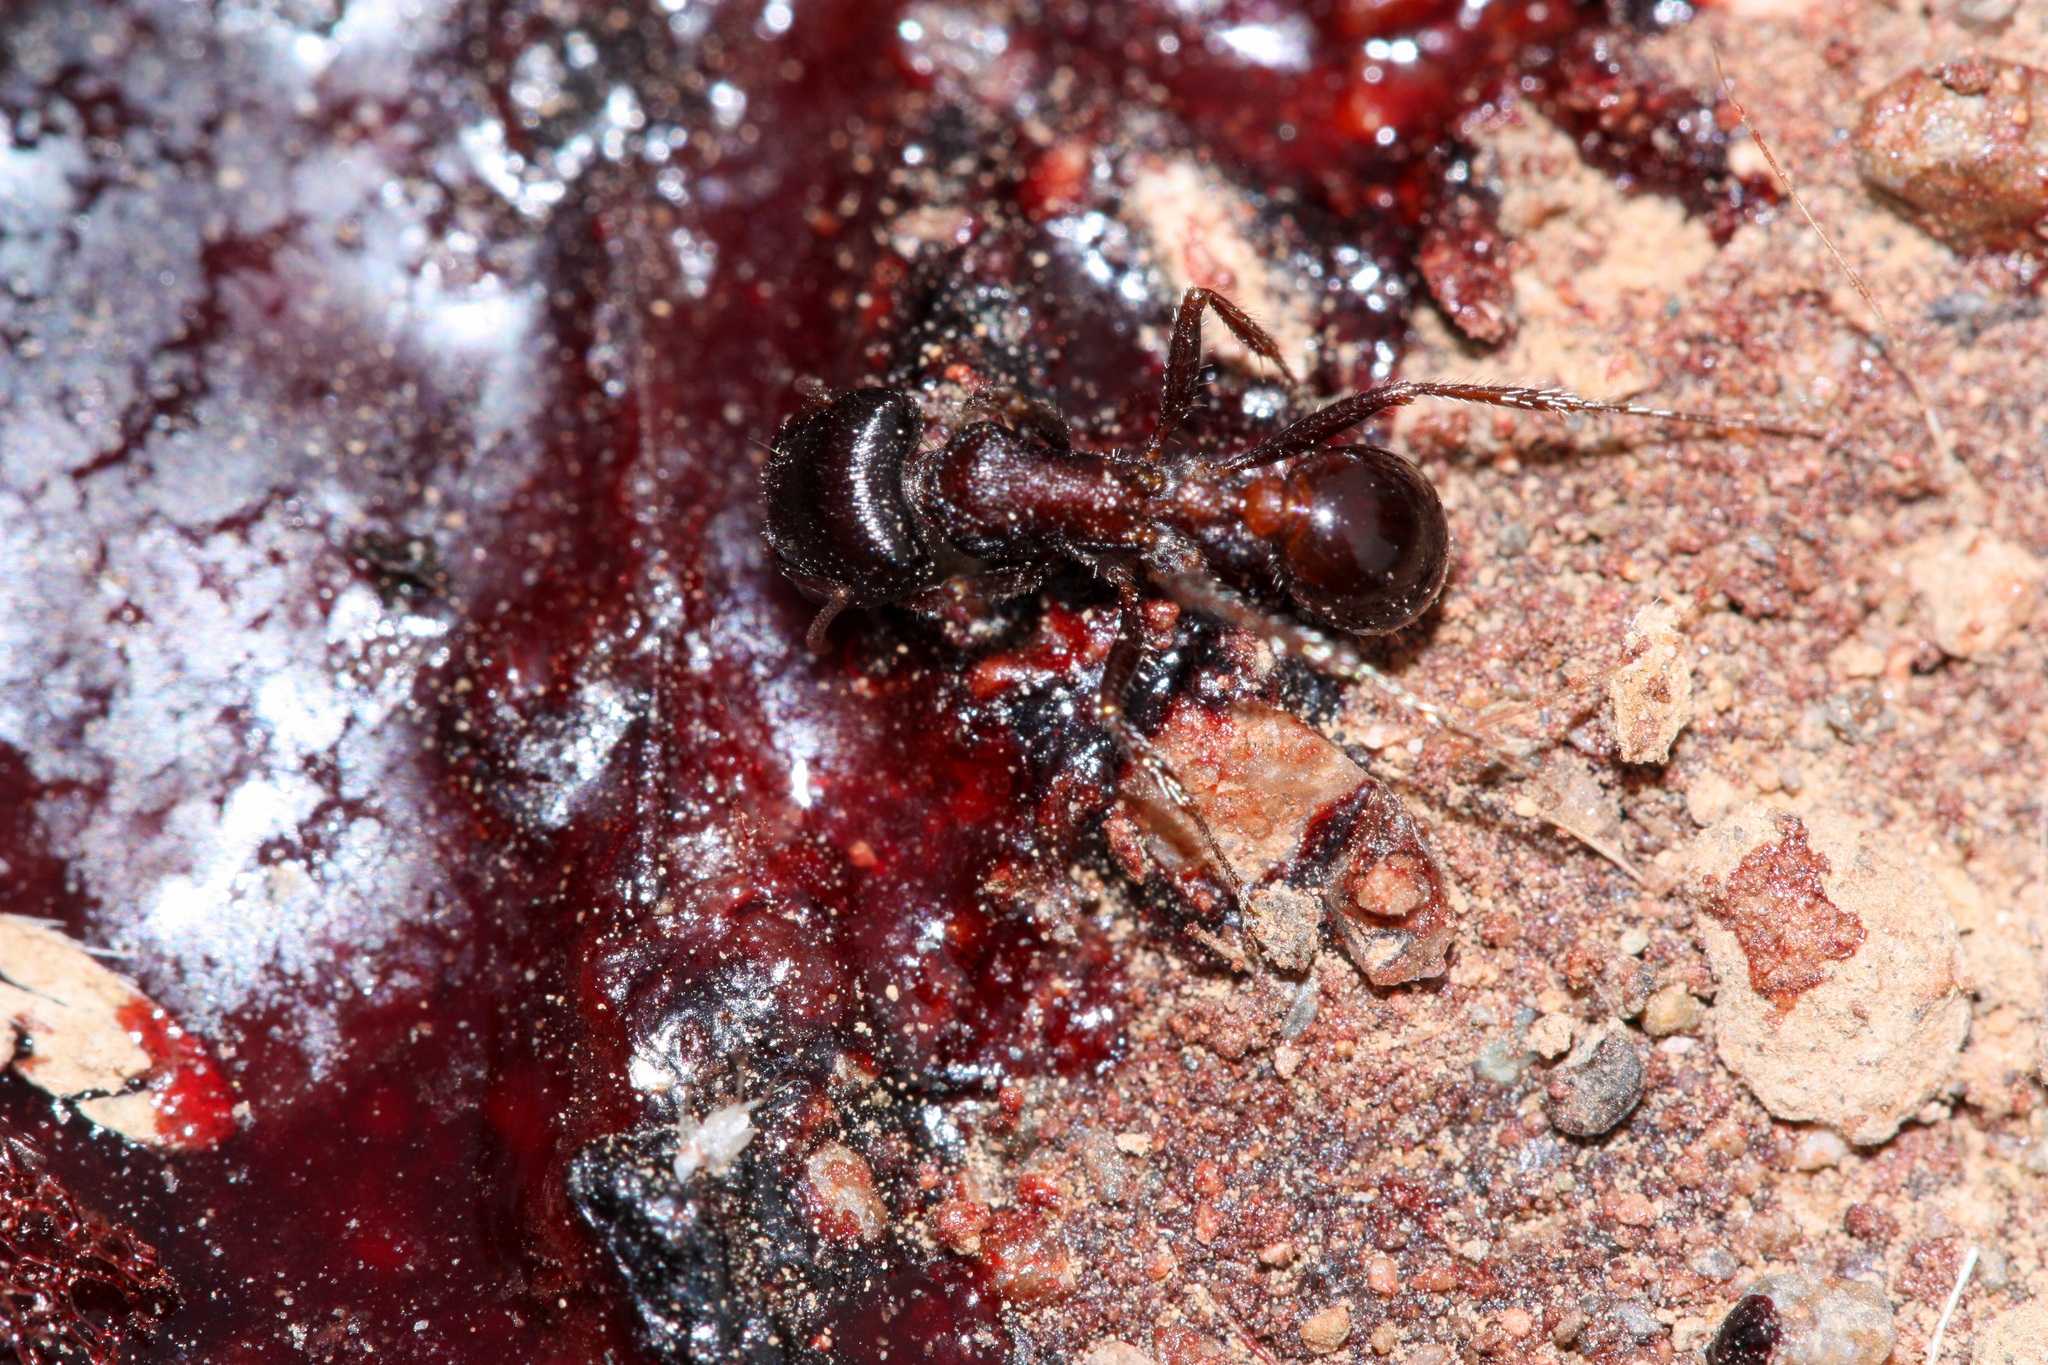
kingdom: Animalia
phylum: Arthropoda
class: Insecta
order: Hymenoptera
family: Formicidae
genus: Pogonomyrmex
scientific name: Pogonomyrmex rugosus
